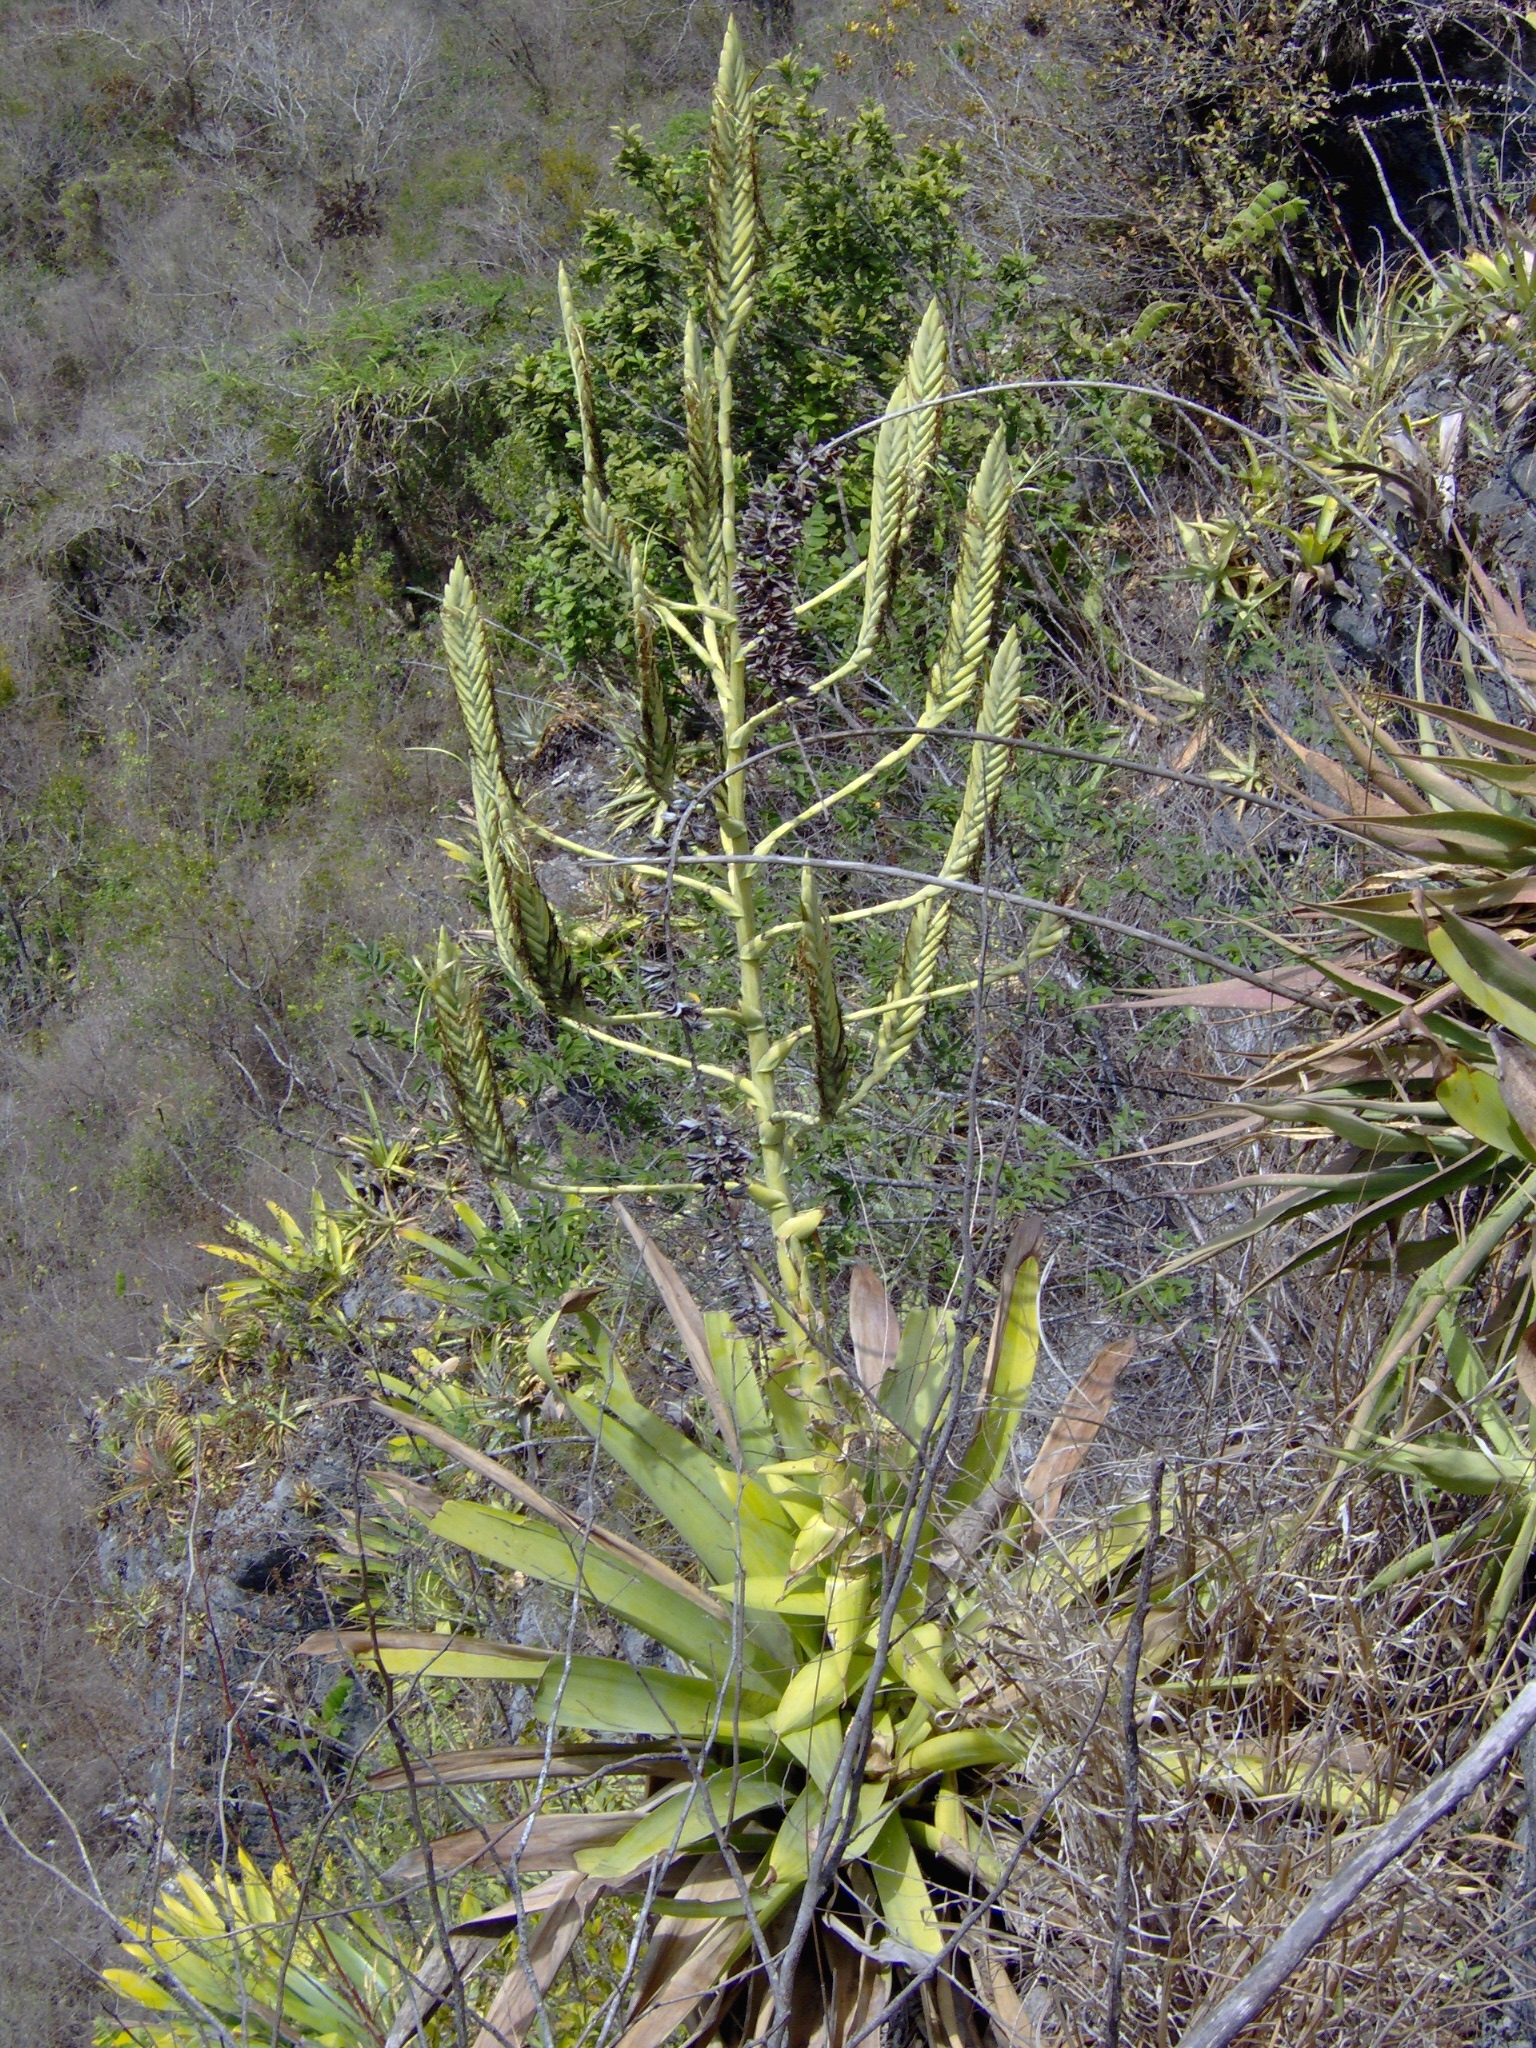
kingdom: Plantae
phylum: Tracheophyta
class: Liliopsida
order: Poales
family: Bromeliaceae
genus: Pseudalcantarea
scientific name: Pseudalcantarea grandis
